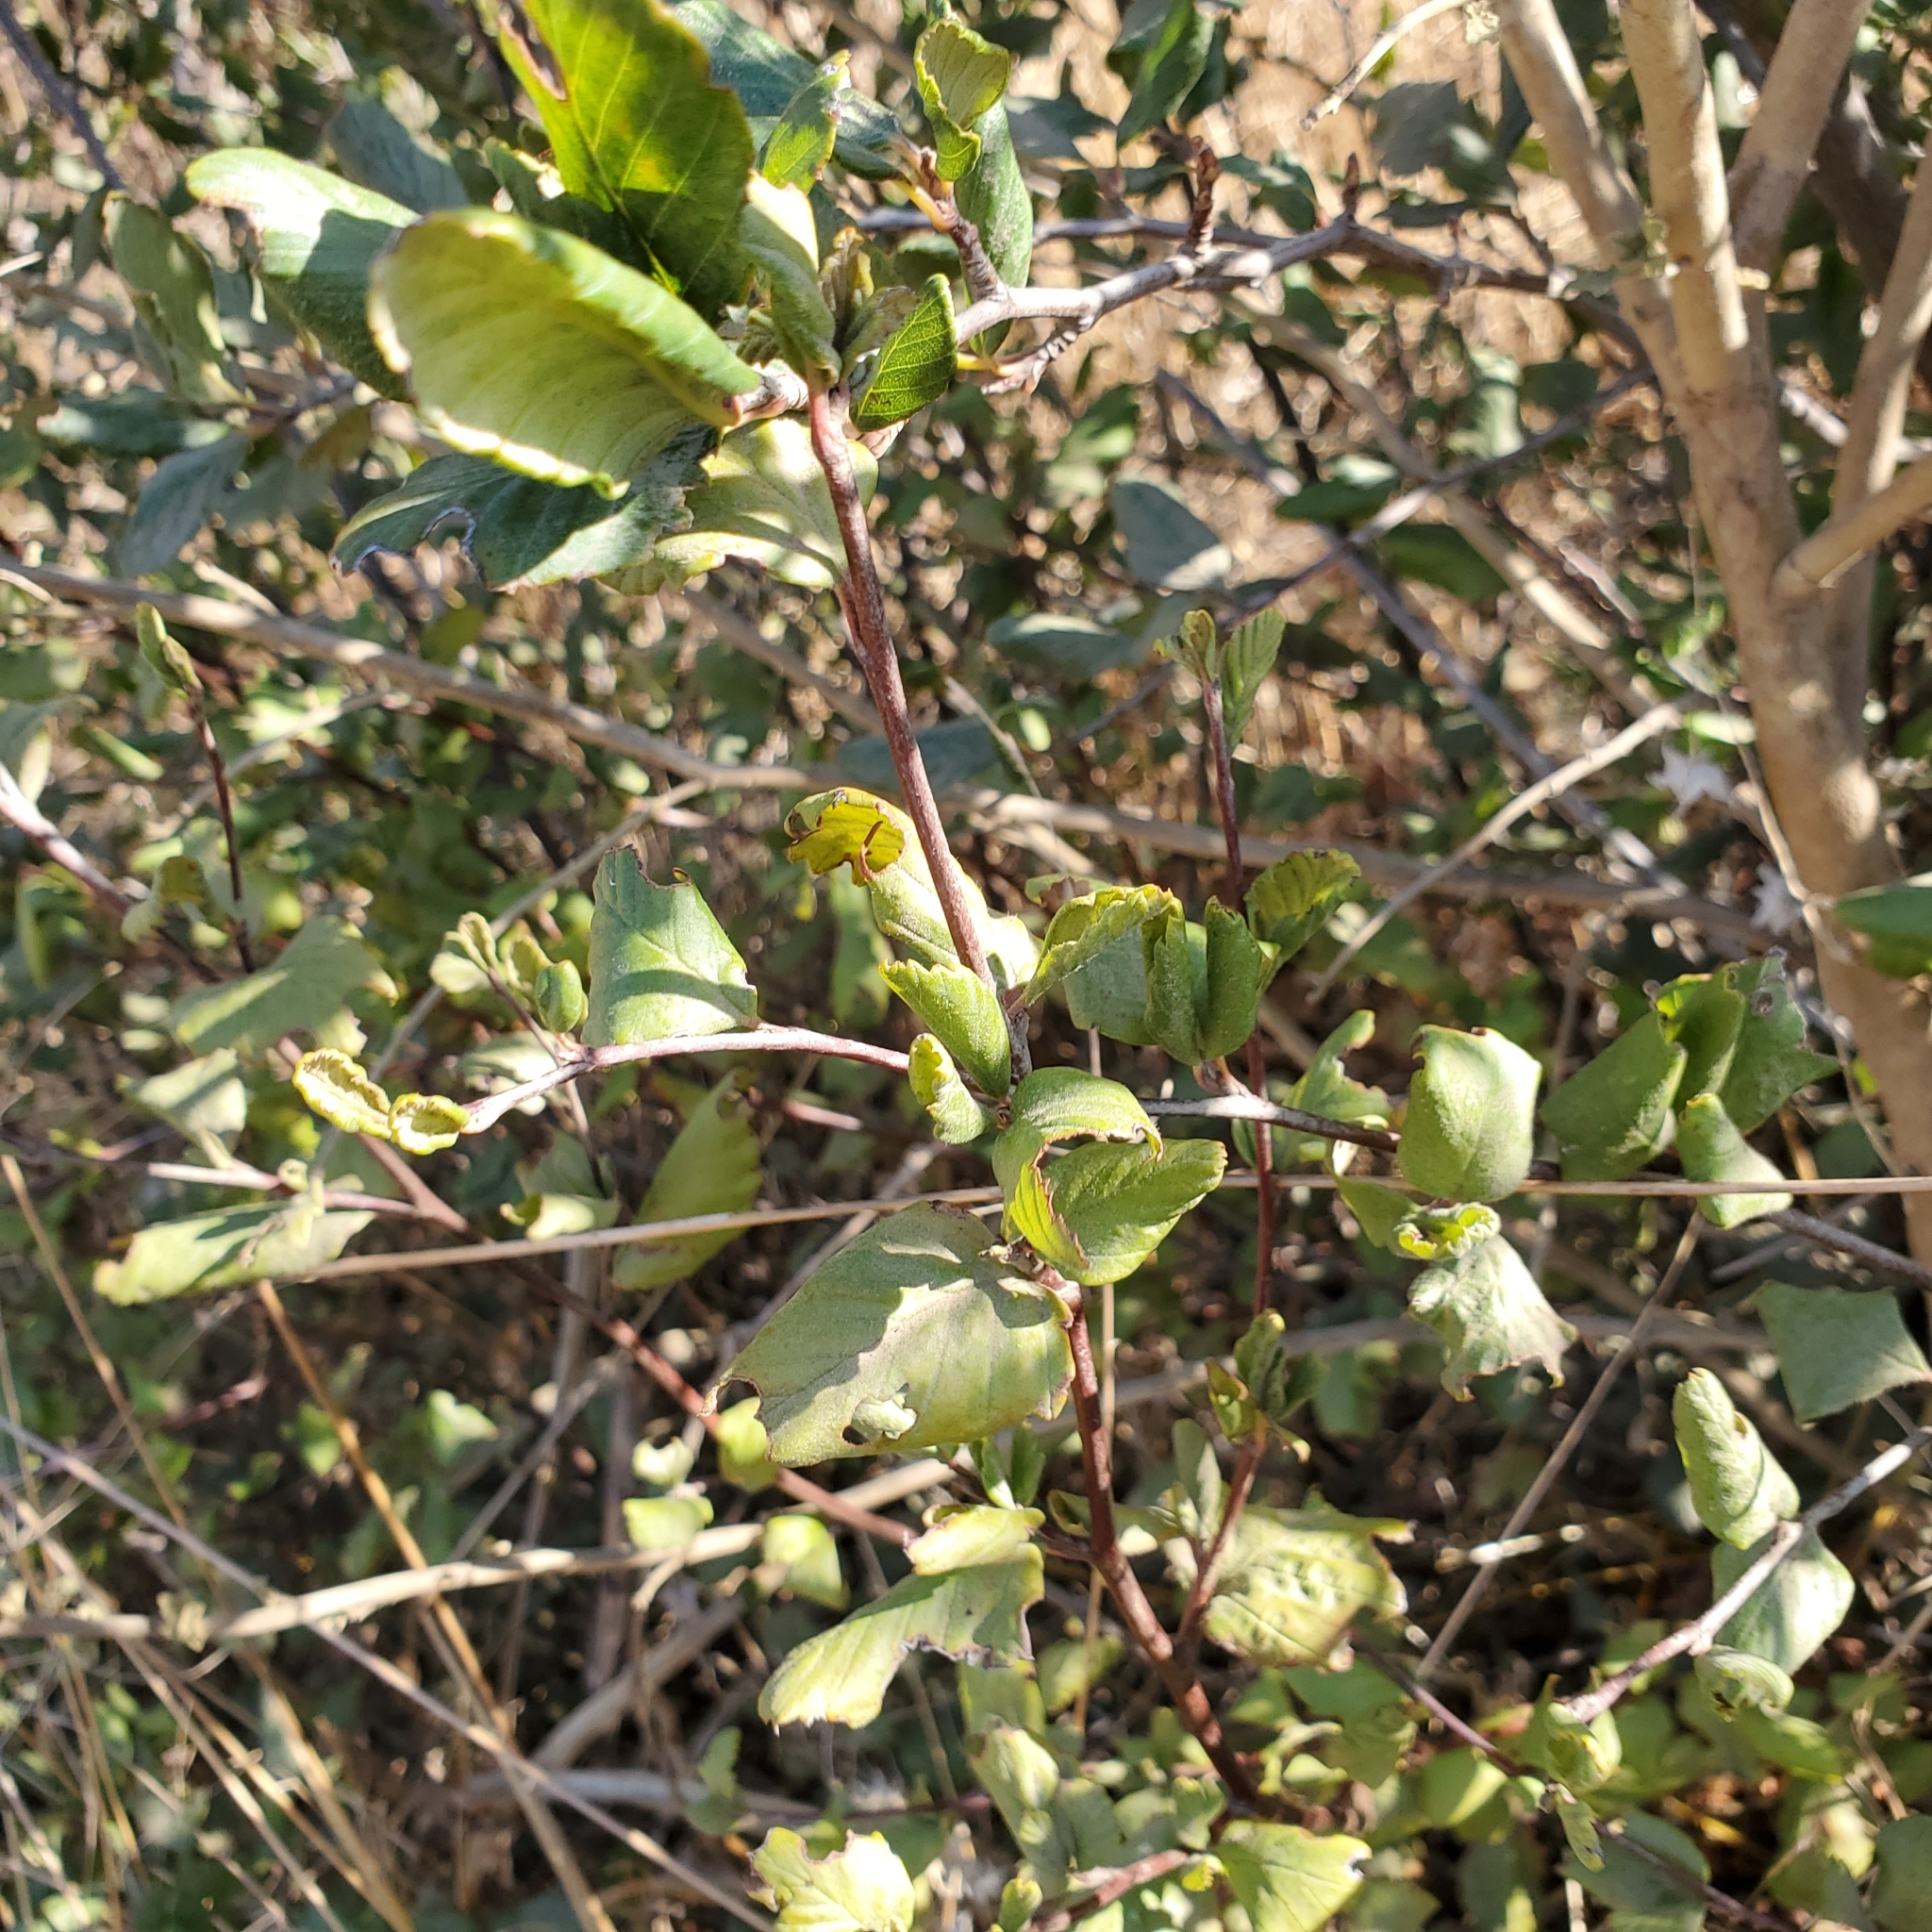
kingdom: Plantae
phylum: Tracheophyta
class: Magnoliopsida
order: Rosales
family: Rosaceae
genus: Cercocarpus
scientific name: Cercocarpus betuloides
